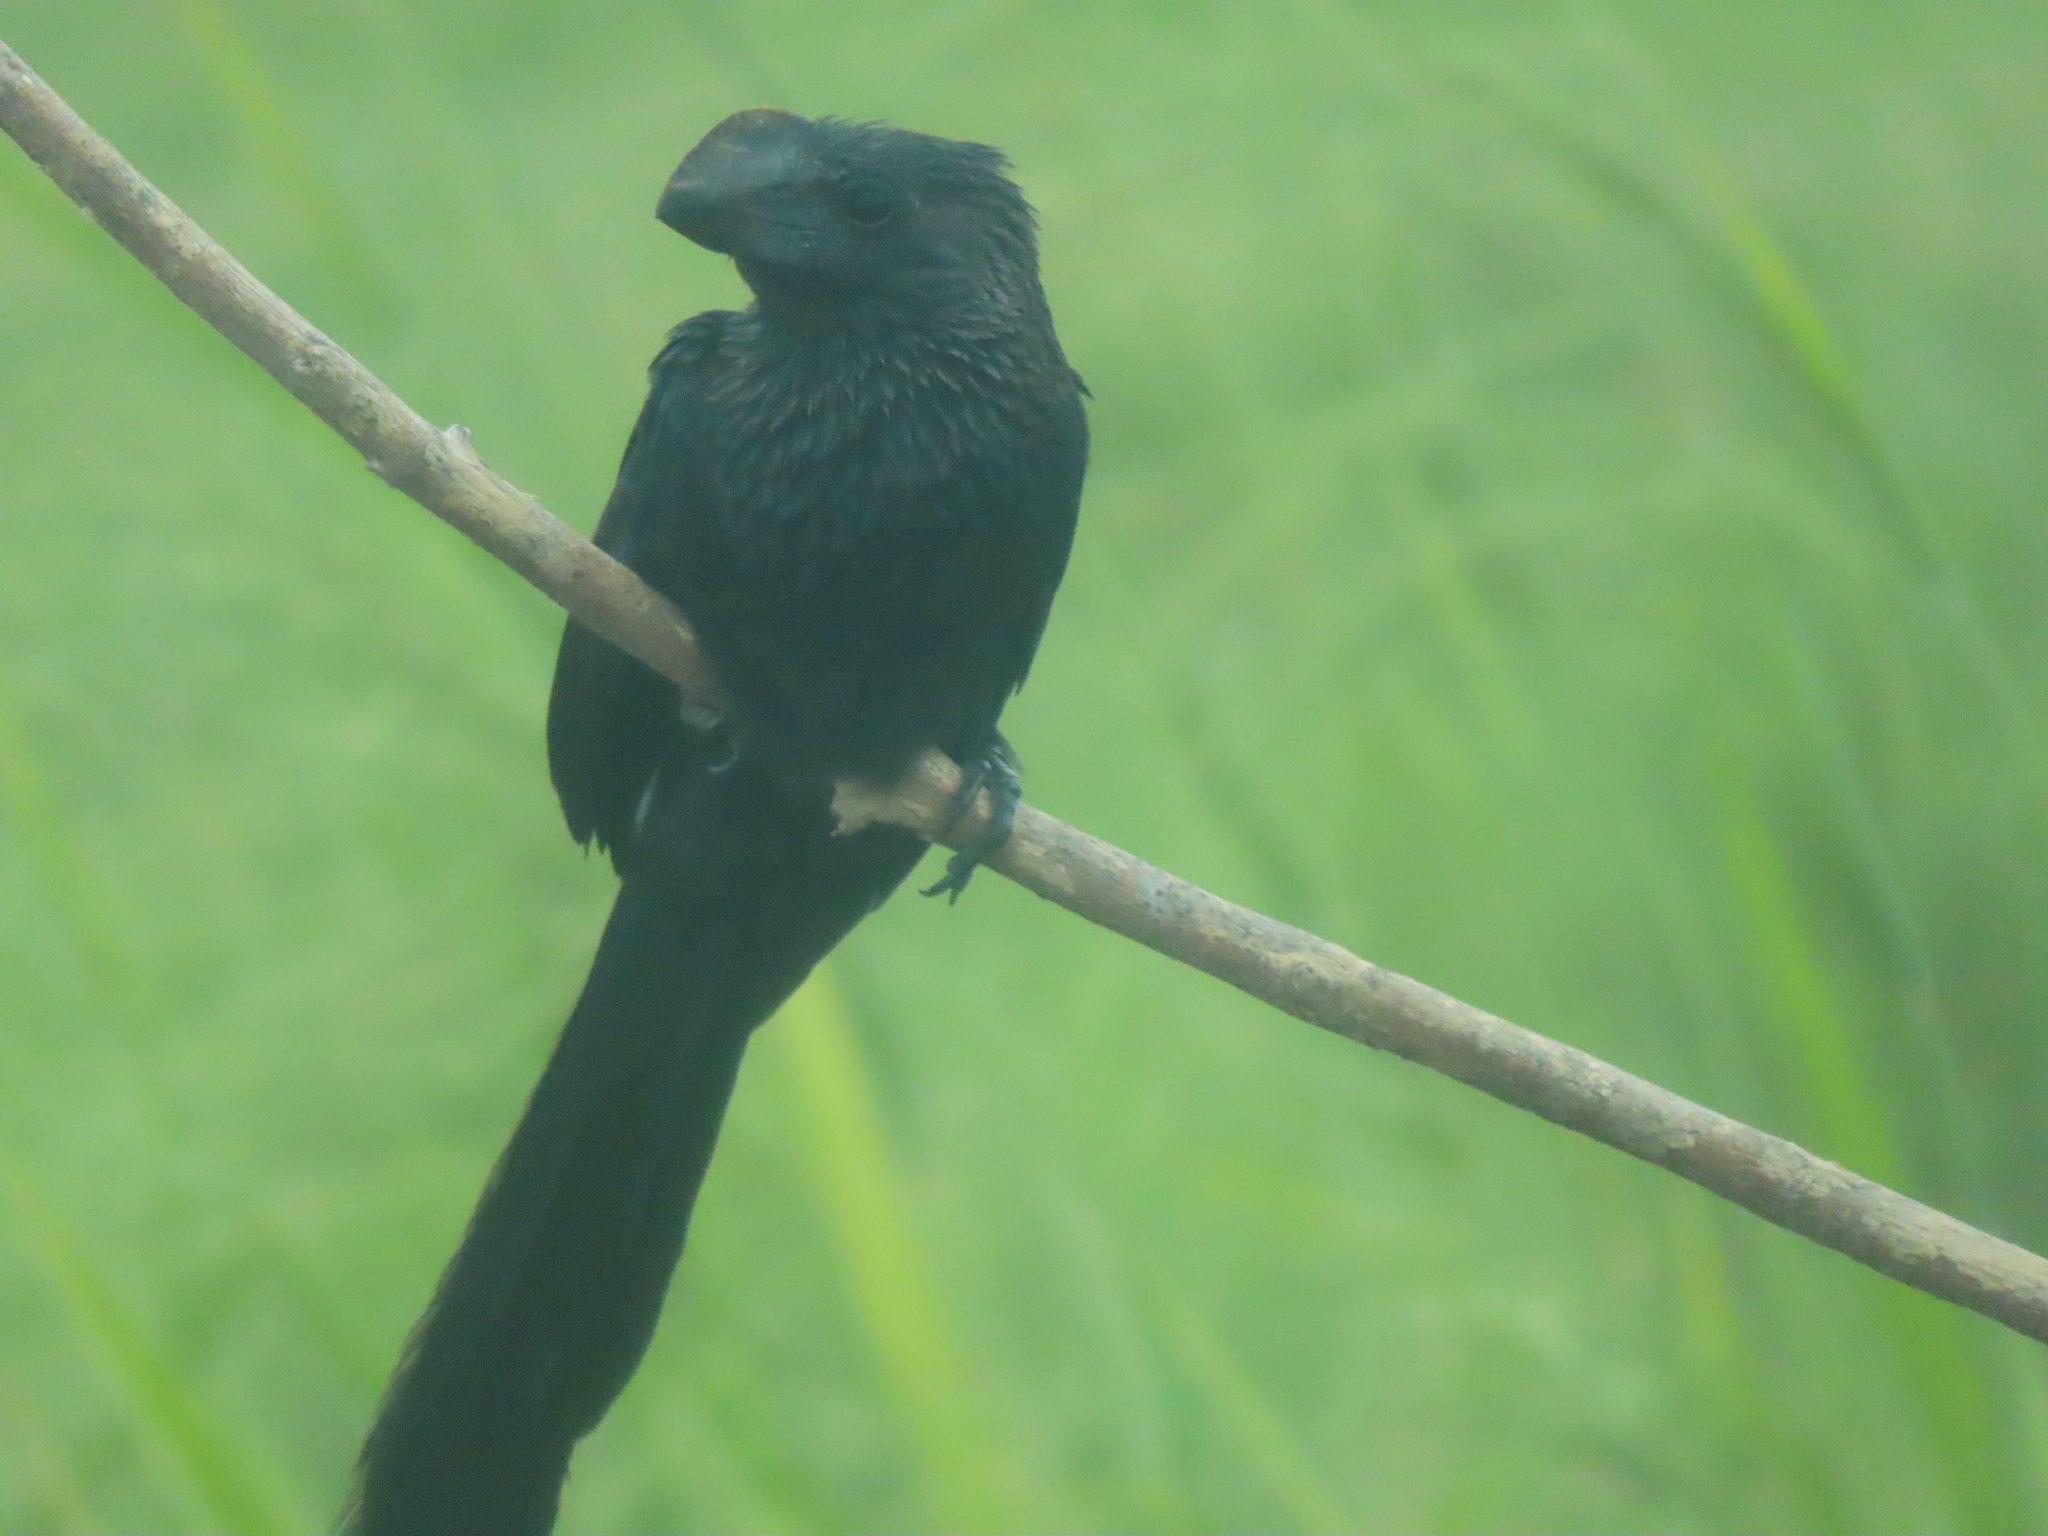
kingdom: Animalia
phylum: Chordata
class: Aves
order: Cuculiformes
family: Cuculidae
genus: Crotophaga
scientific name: Crotophaga ani
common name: Smooth-billed ani
